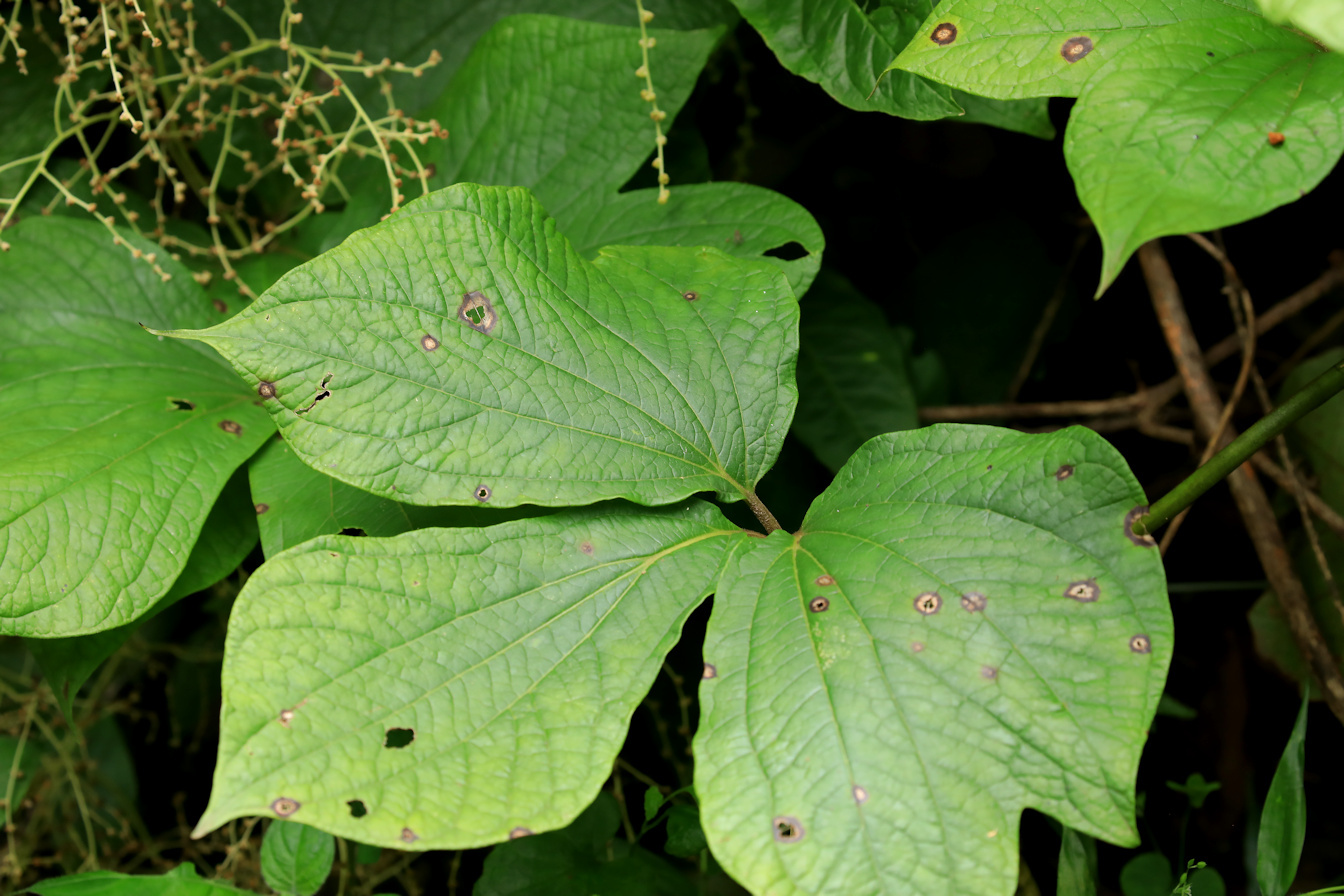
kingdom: Plantae
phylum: Tracheophyta
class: Liliopsida
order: Dioscoreales
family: Dioscoreaceae
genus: Dioscorea
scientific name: Dioscorea dregeana
